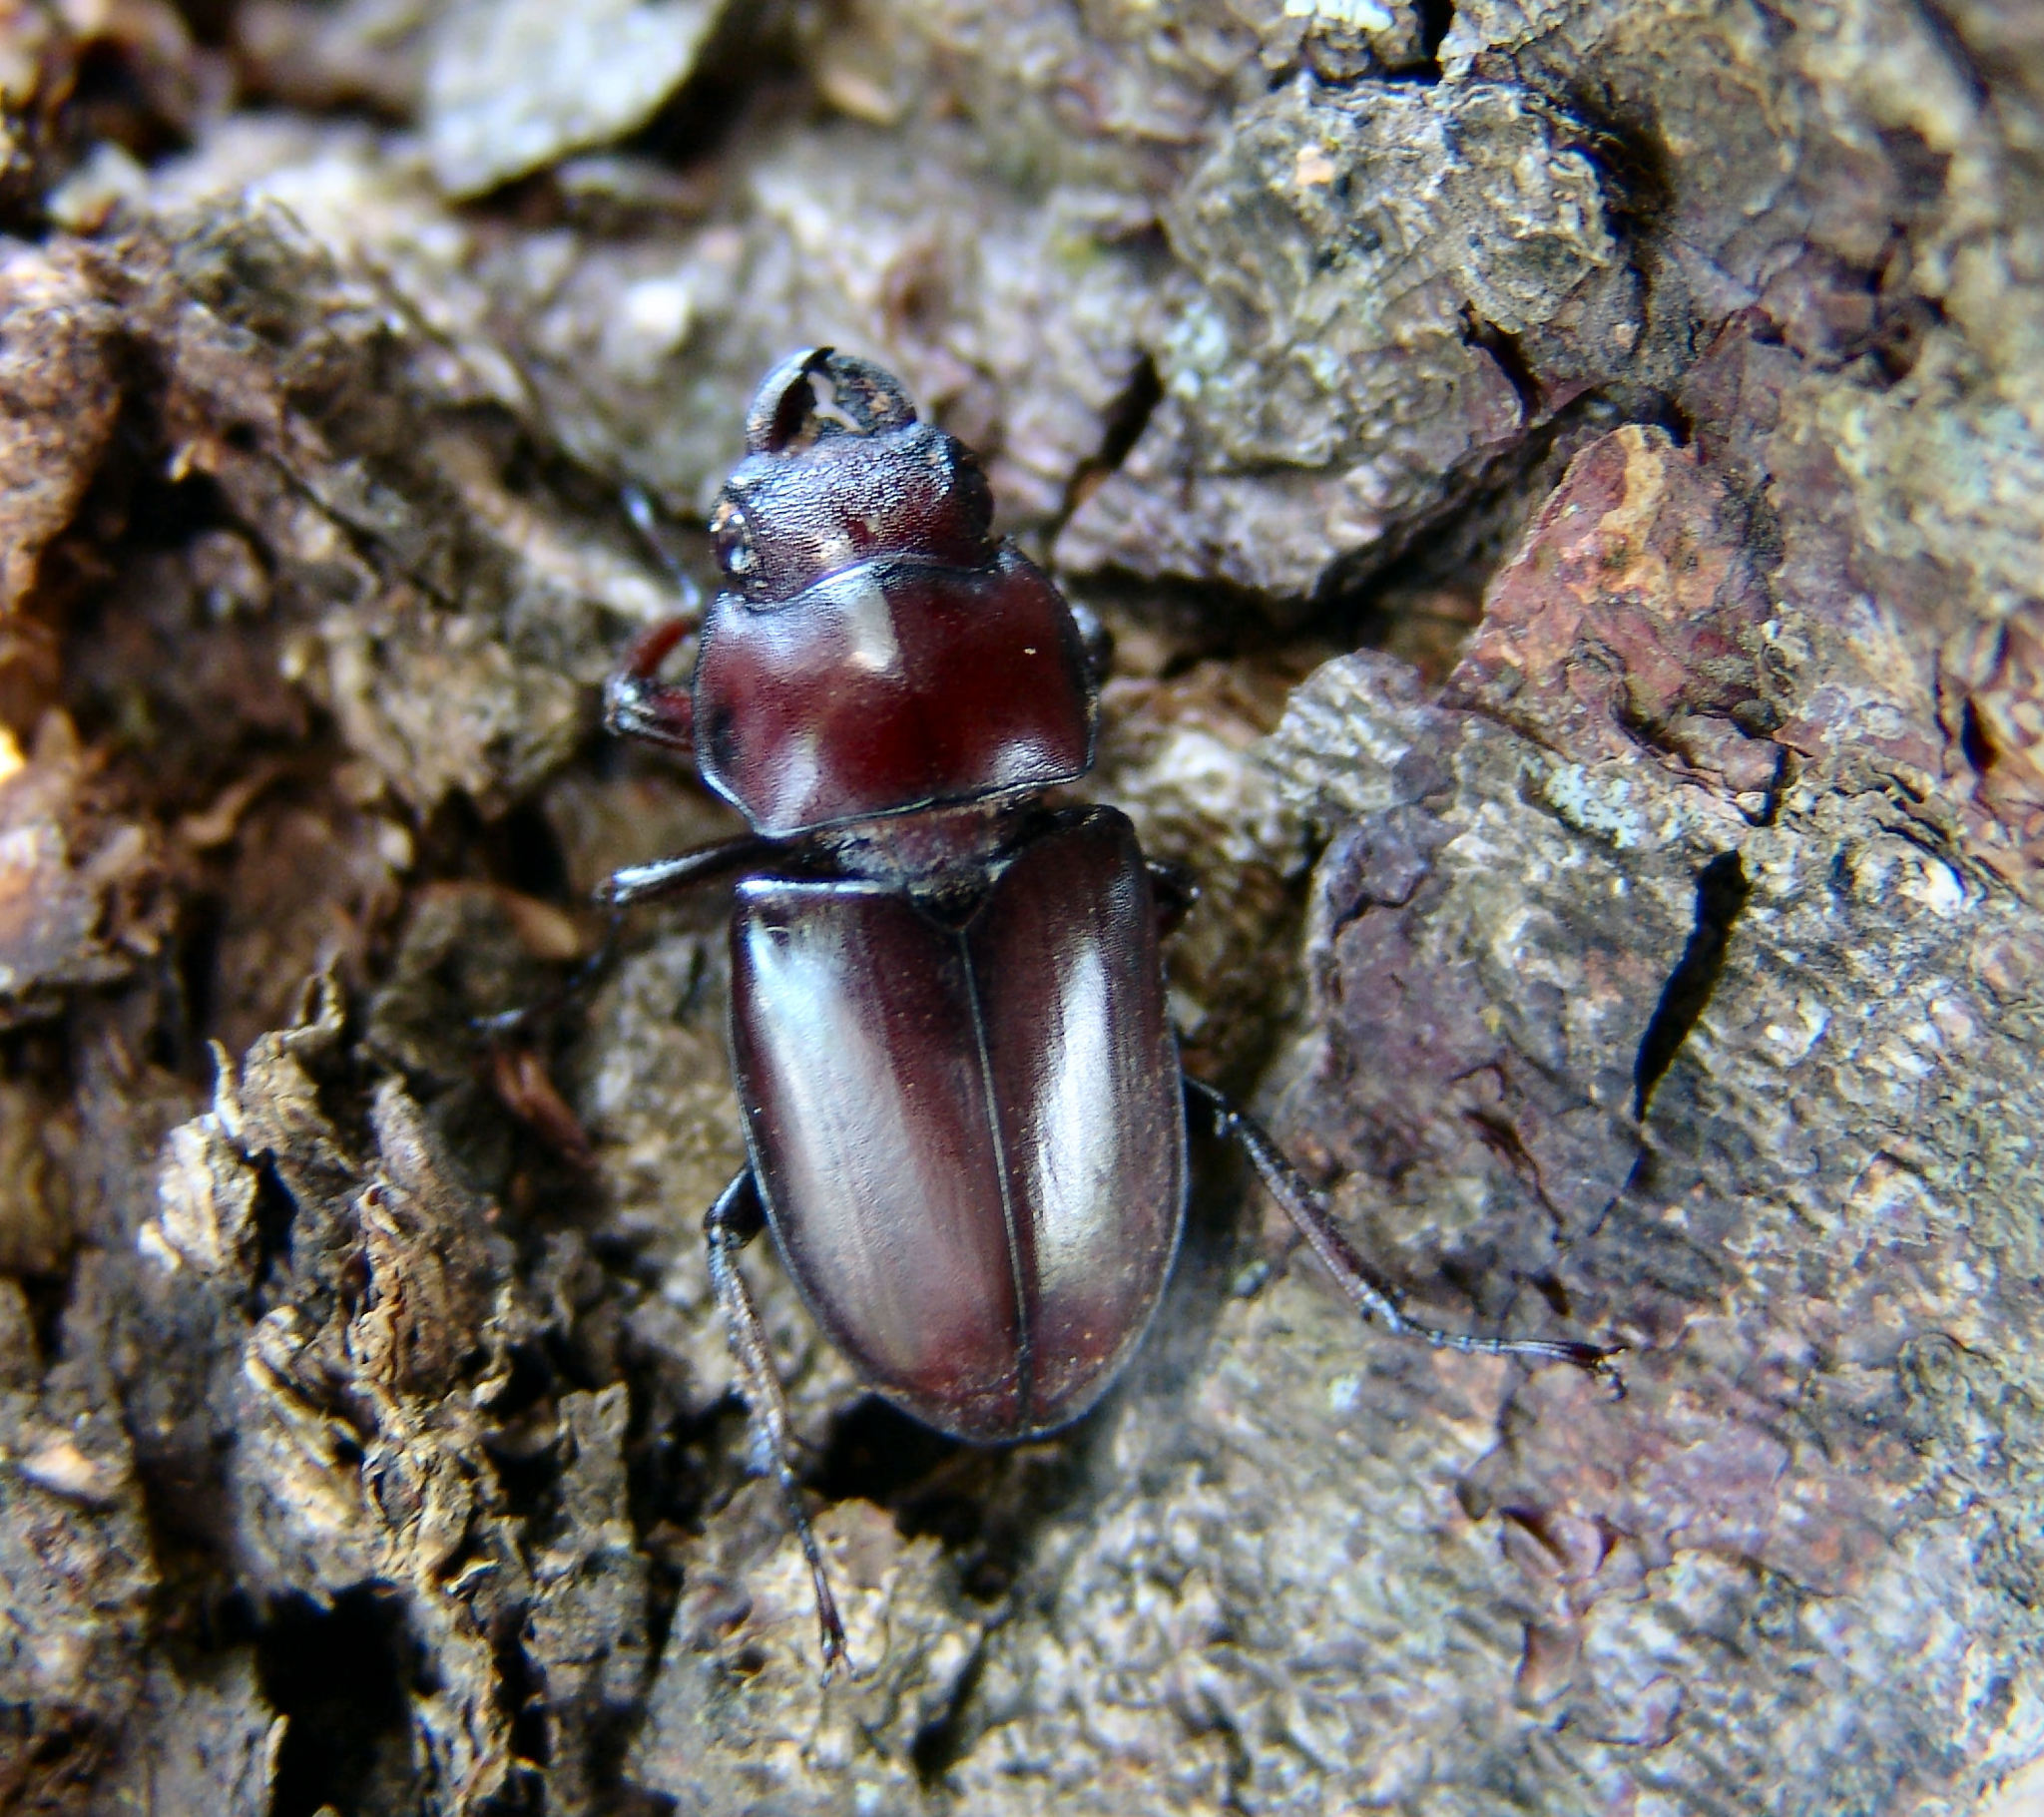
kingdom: Animalia
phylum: Arthropoda
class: Insecta
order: Coleoptera
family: Lucanidae
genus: Lucanus
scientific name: Lucanus capreolus
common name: Stag beetle
